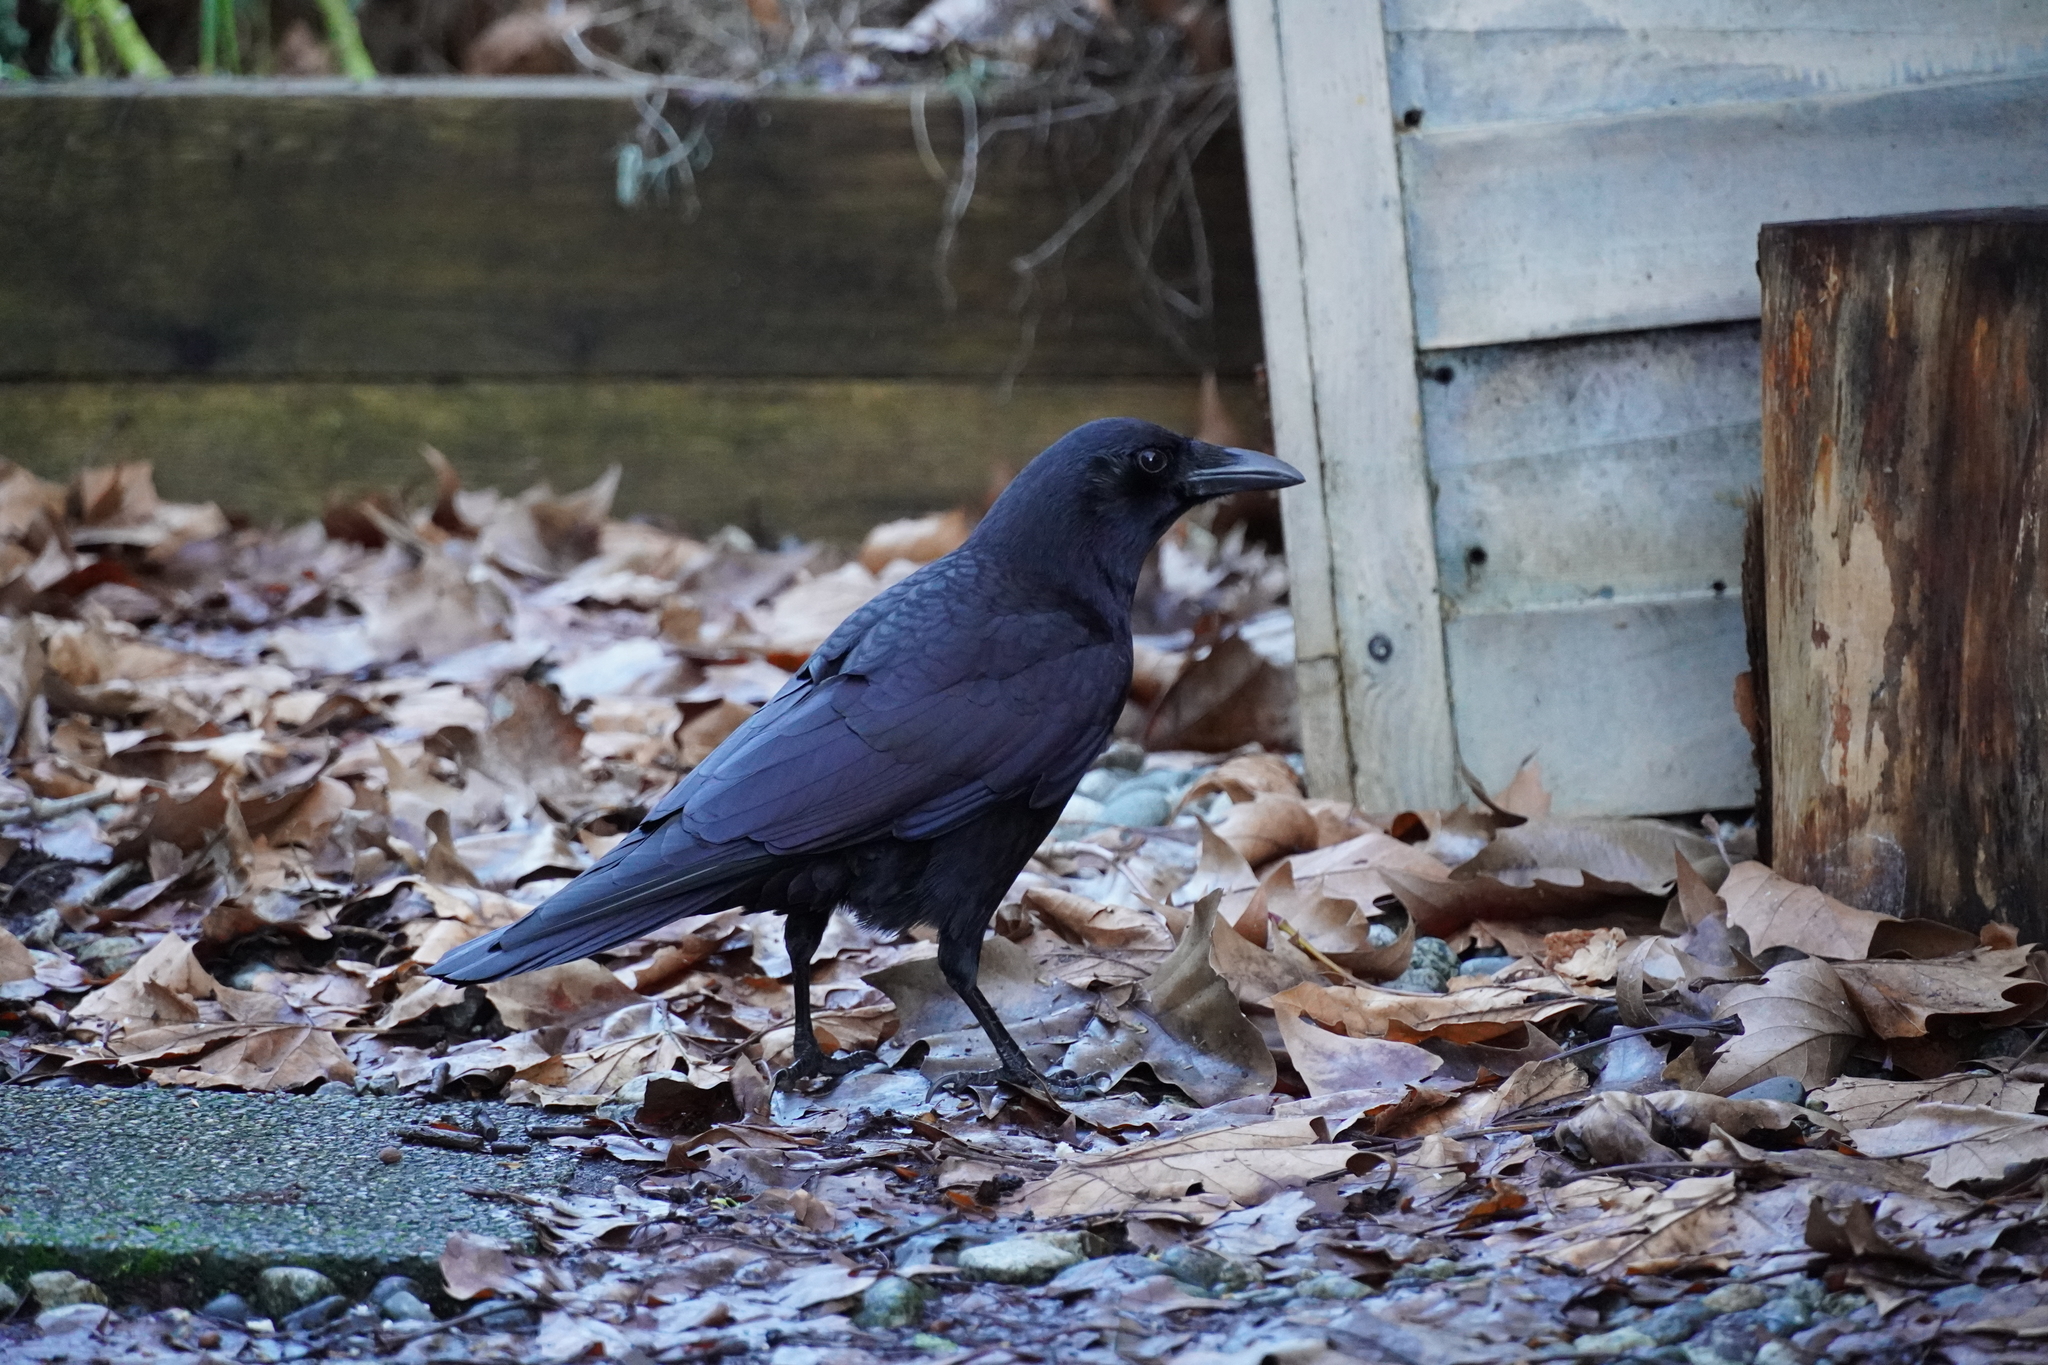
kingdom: Animalia
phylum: Chordata
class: Aves
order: Passeriformes
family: Corvidae
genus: Corvus
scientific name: Corvus brachyrhynchos
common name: American crow
